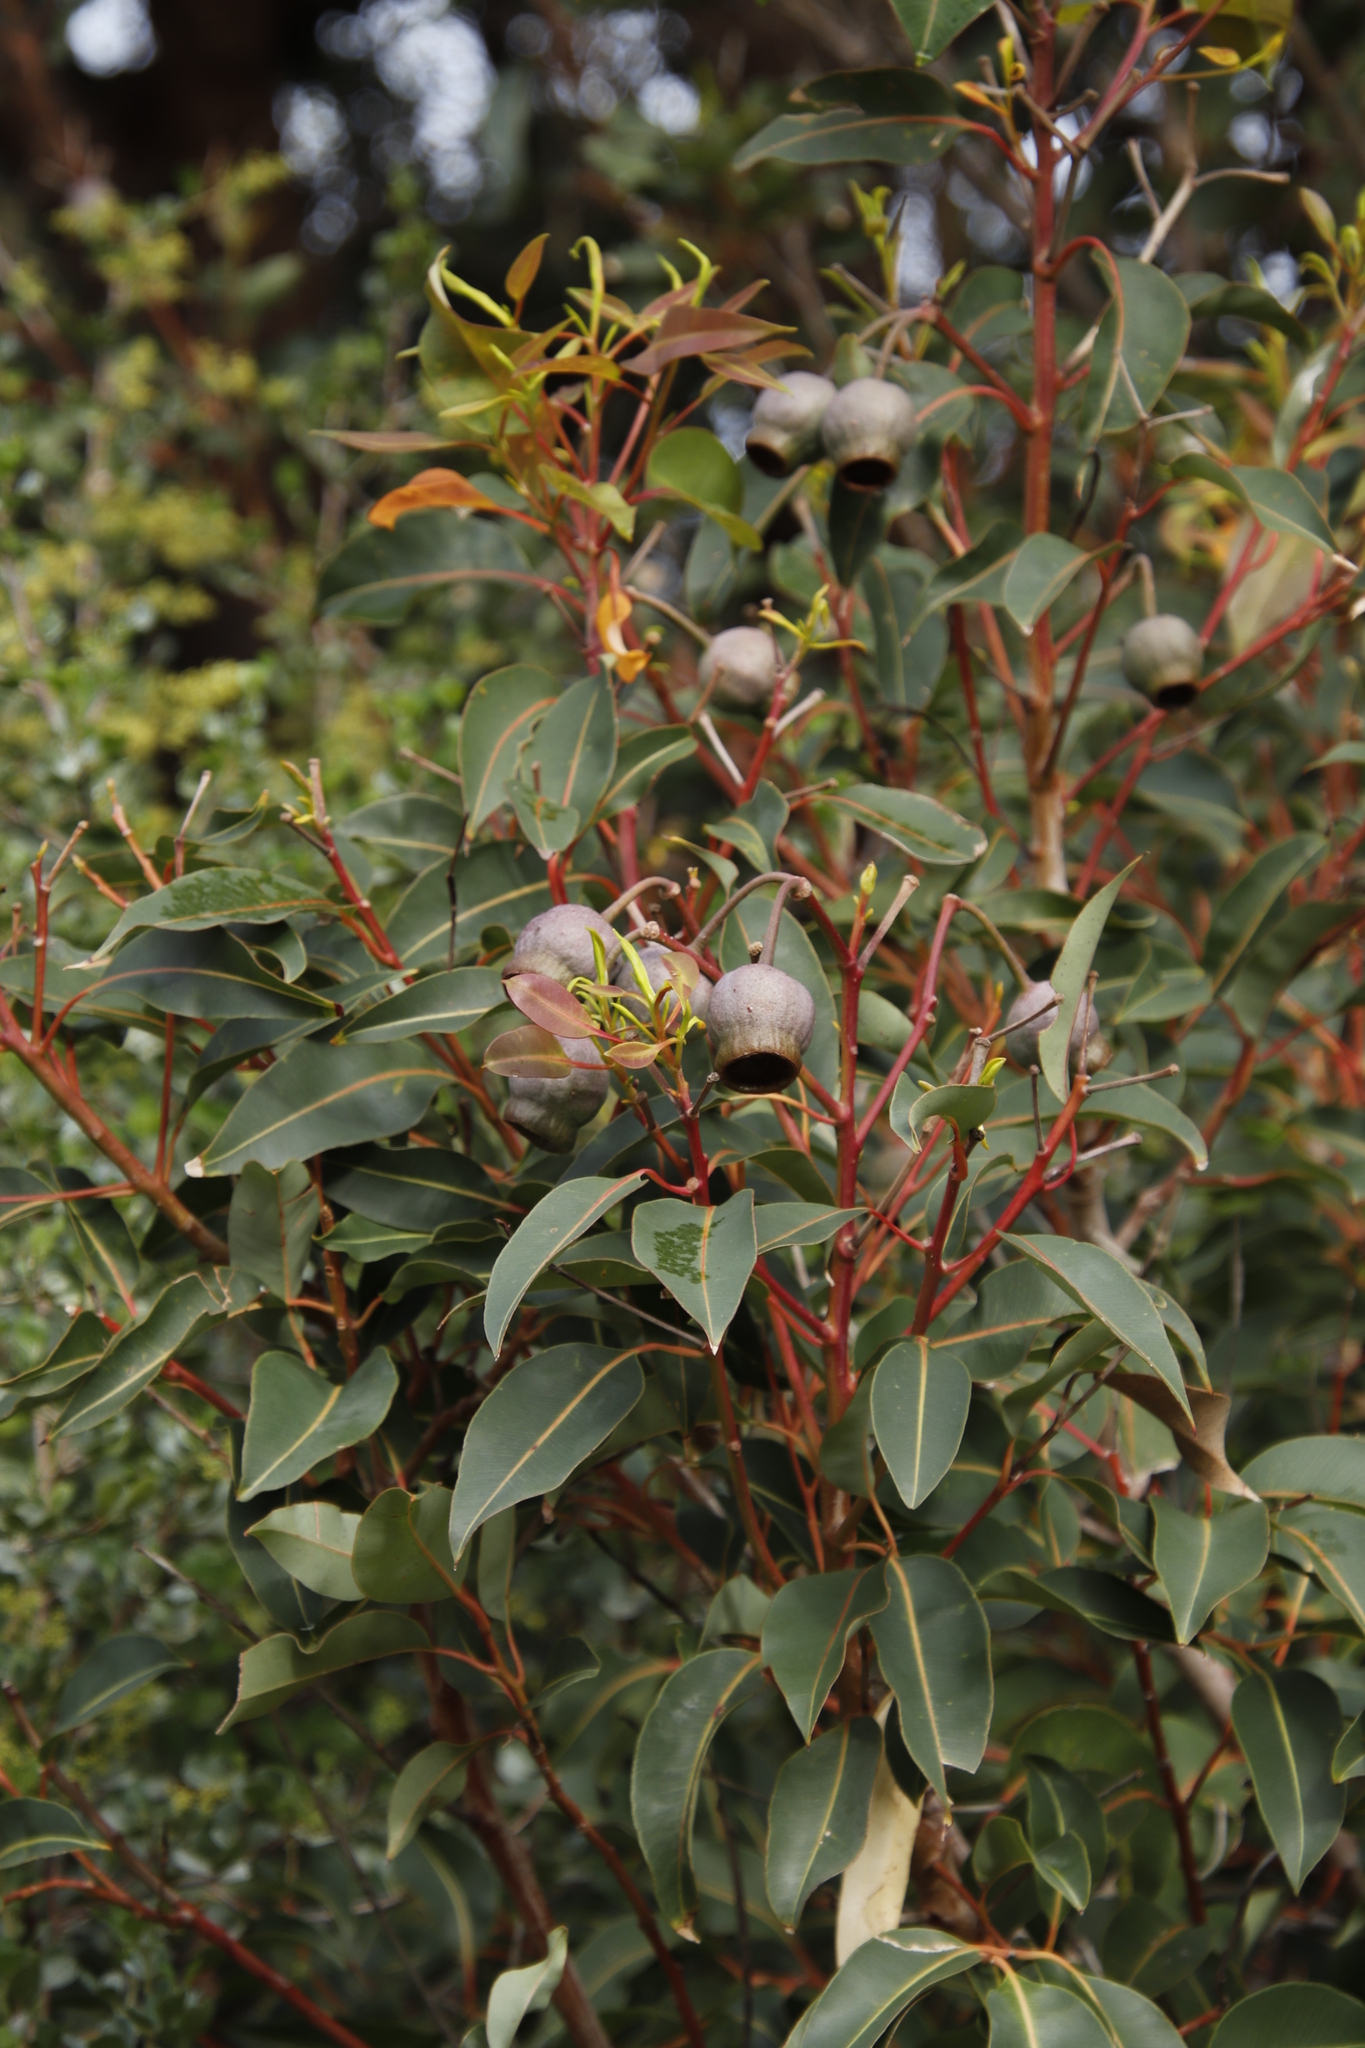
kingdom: Plantae
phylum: Tracheophyta
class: Magnoliopsida
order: Myrtales
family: Myrtaceae
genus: Corymbia
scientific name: Corymbia ficifolia
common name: Redflower gum
